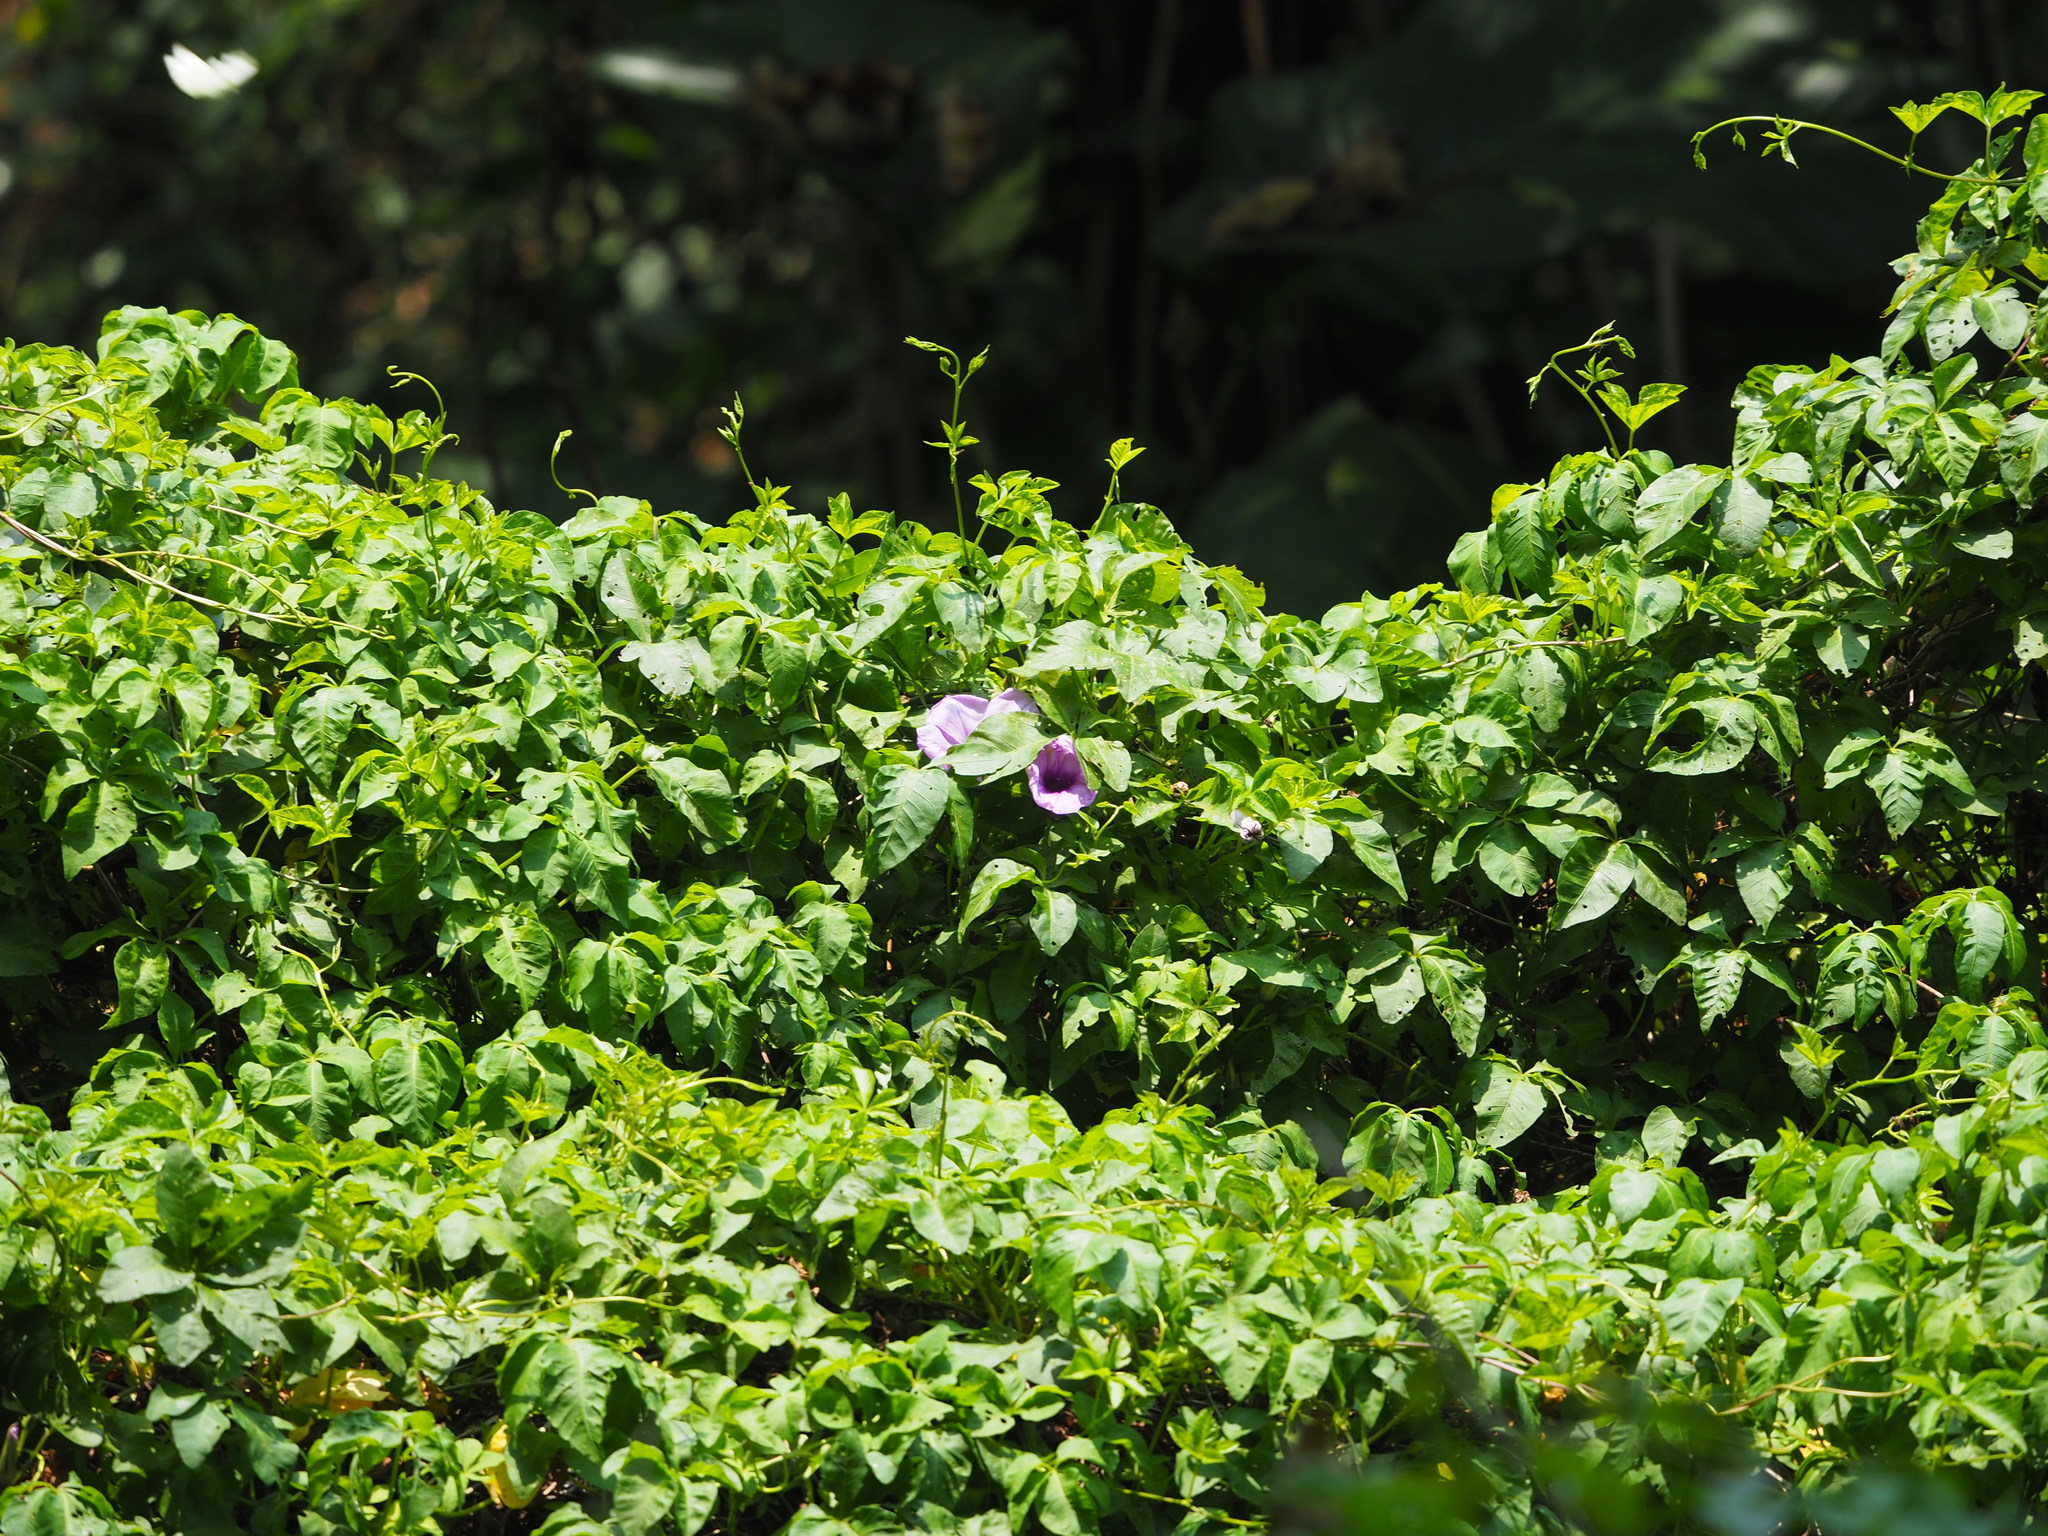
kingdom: Plantae
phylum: Tracheophyta
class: Magnoliopsida
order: Solanales
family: Convolvulaceae
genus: Ipomoea
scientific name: Ipomoea cairica
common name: Mile a minute vine
